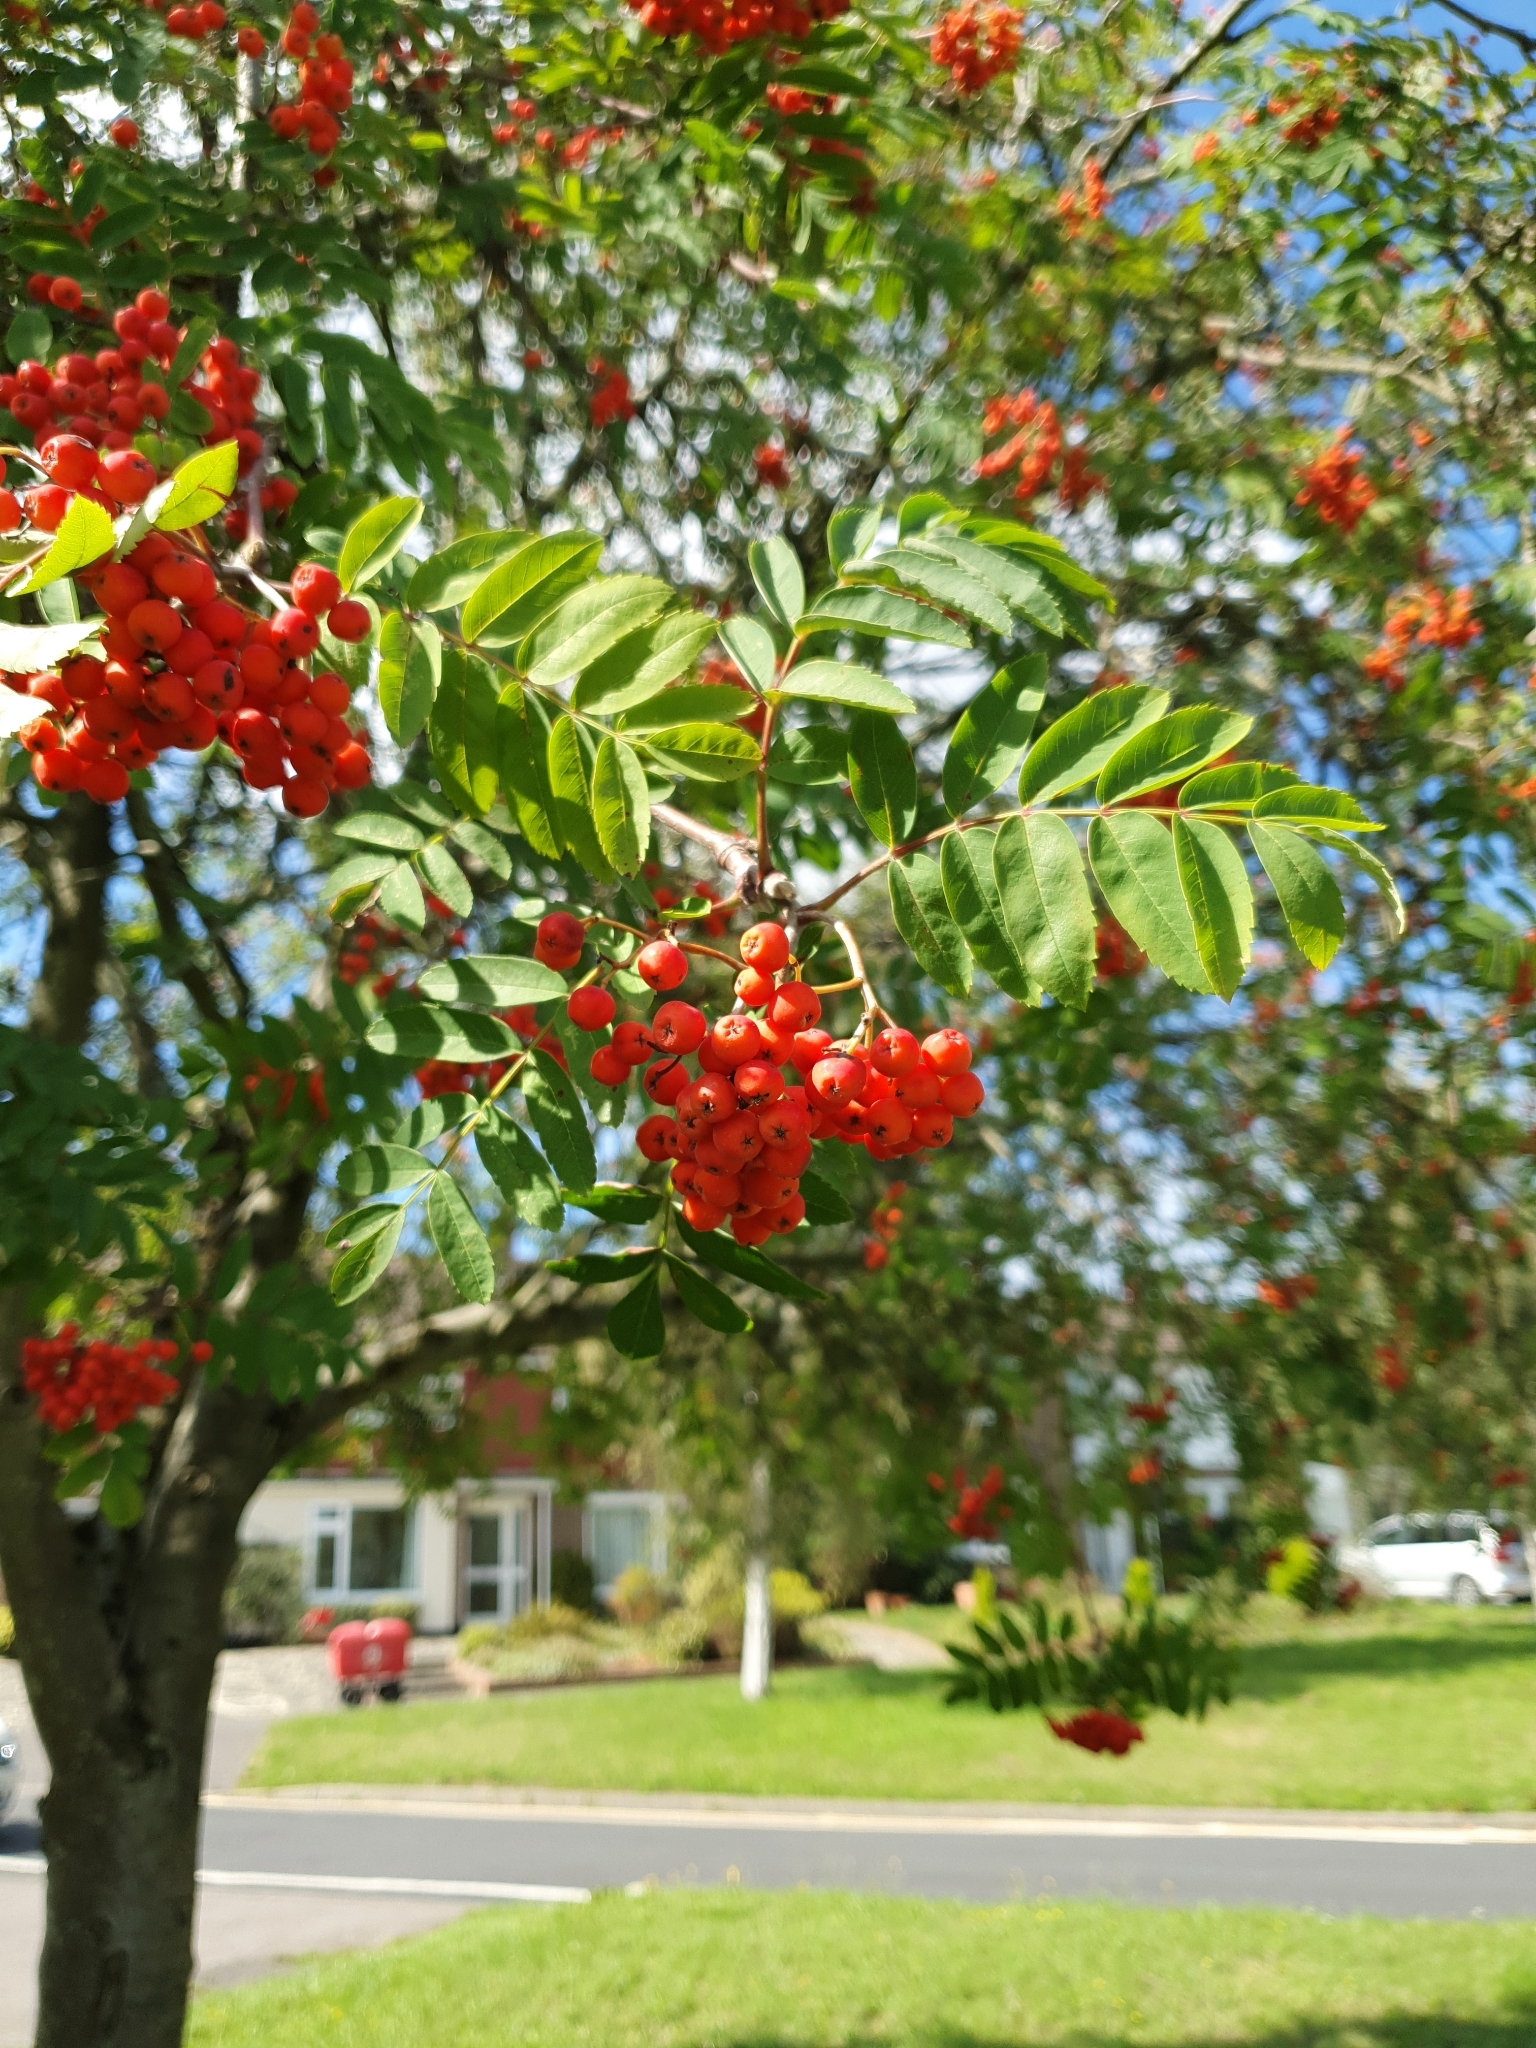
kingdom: Plantae
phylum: Tracheophyta
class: Magnoliopsida
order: Rosales
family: Rosaceae
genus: Sorbus
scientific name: Sorbus aucuparia
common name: Rowan
